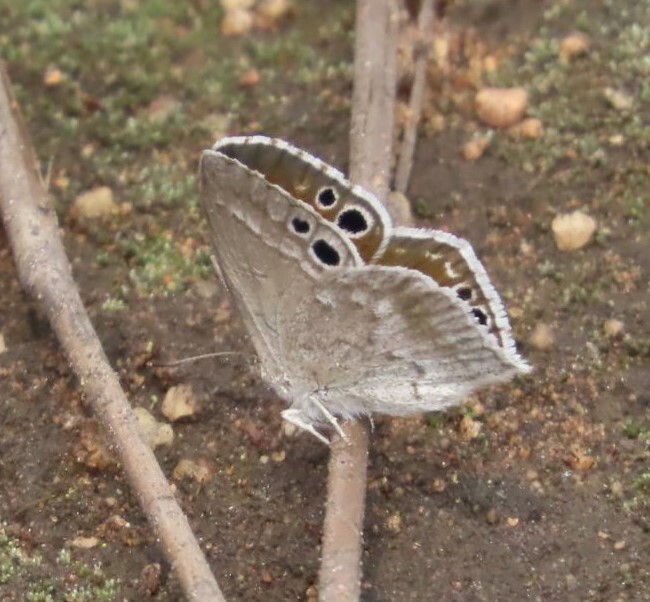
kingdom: Animalia
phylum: Arthropoda
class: Insecta
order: Lepidoptera
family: Lycaenidae
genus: Leptomyrina
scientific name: Leptomyrina henningi
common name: Henning's black-eye
